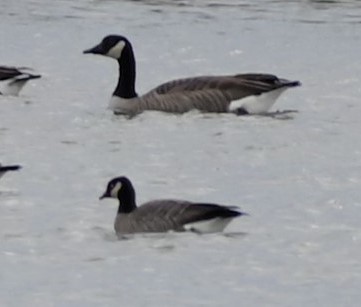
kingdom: Animalia
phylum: Chordata
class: Aves
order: Anseriformes
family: Anatidae
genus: Branta
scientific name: Branta hutchinsii
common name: Cackling goose
